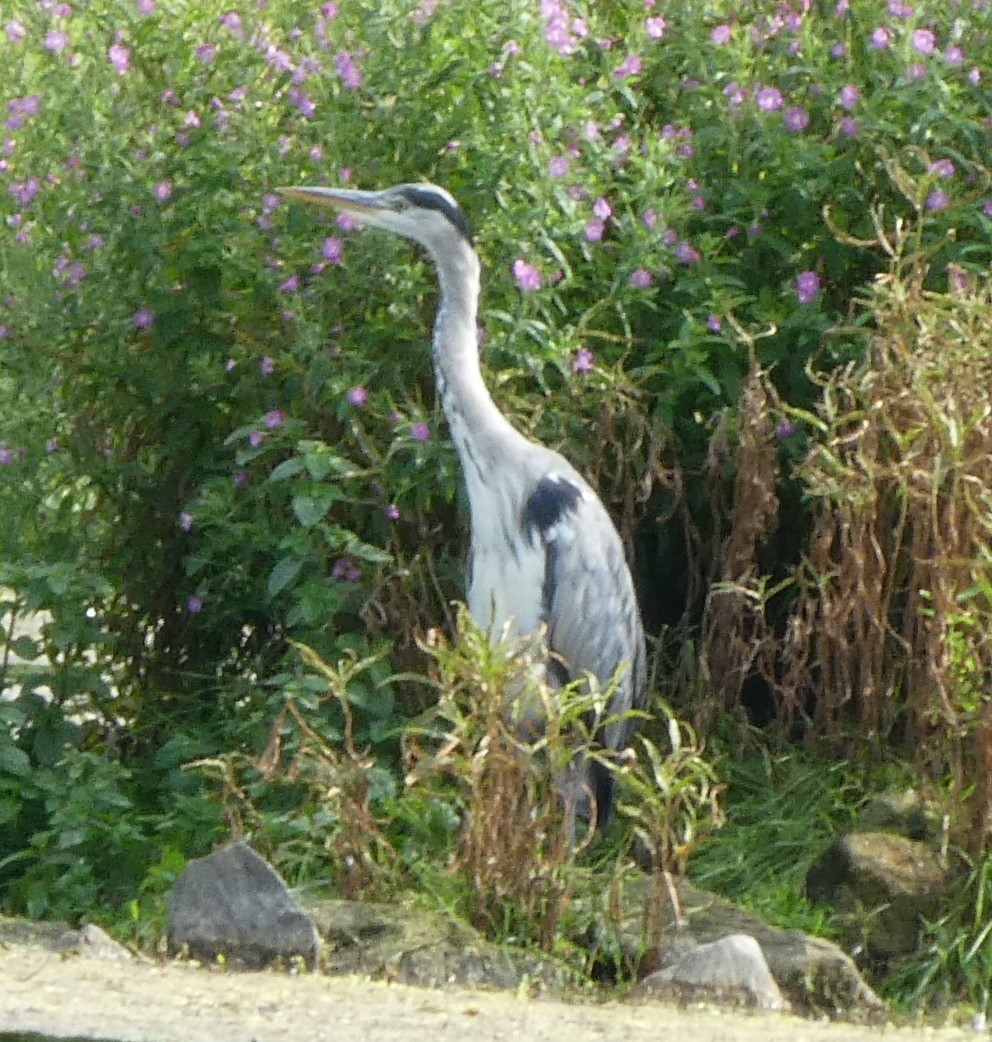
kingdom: Animalia
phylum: Chordata
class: Aves
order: Pelecaniformes
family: Ardeidae
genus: Ardea
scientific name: Ardea cinerea
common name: Grey heron
